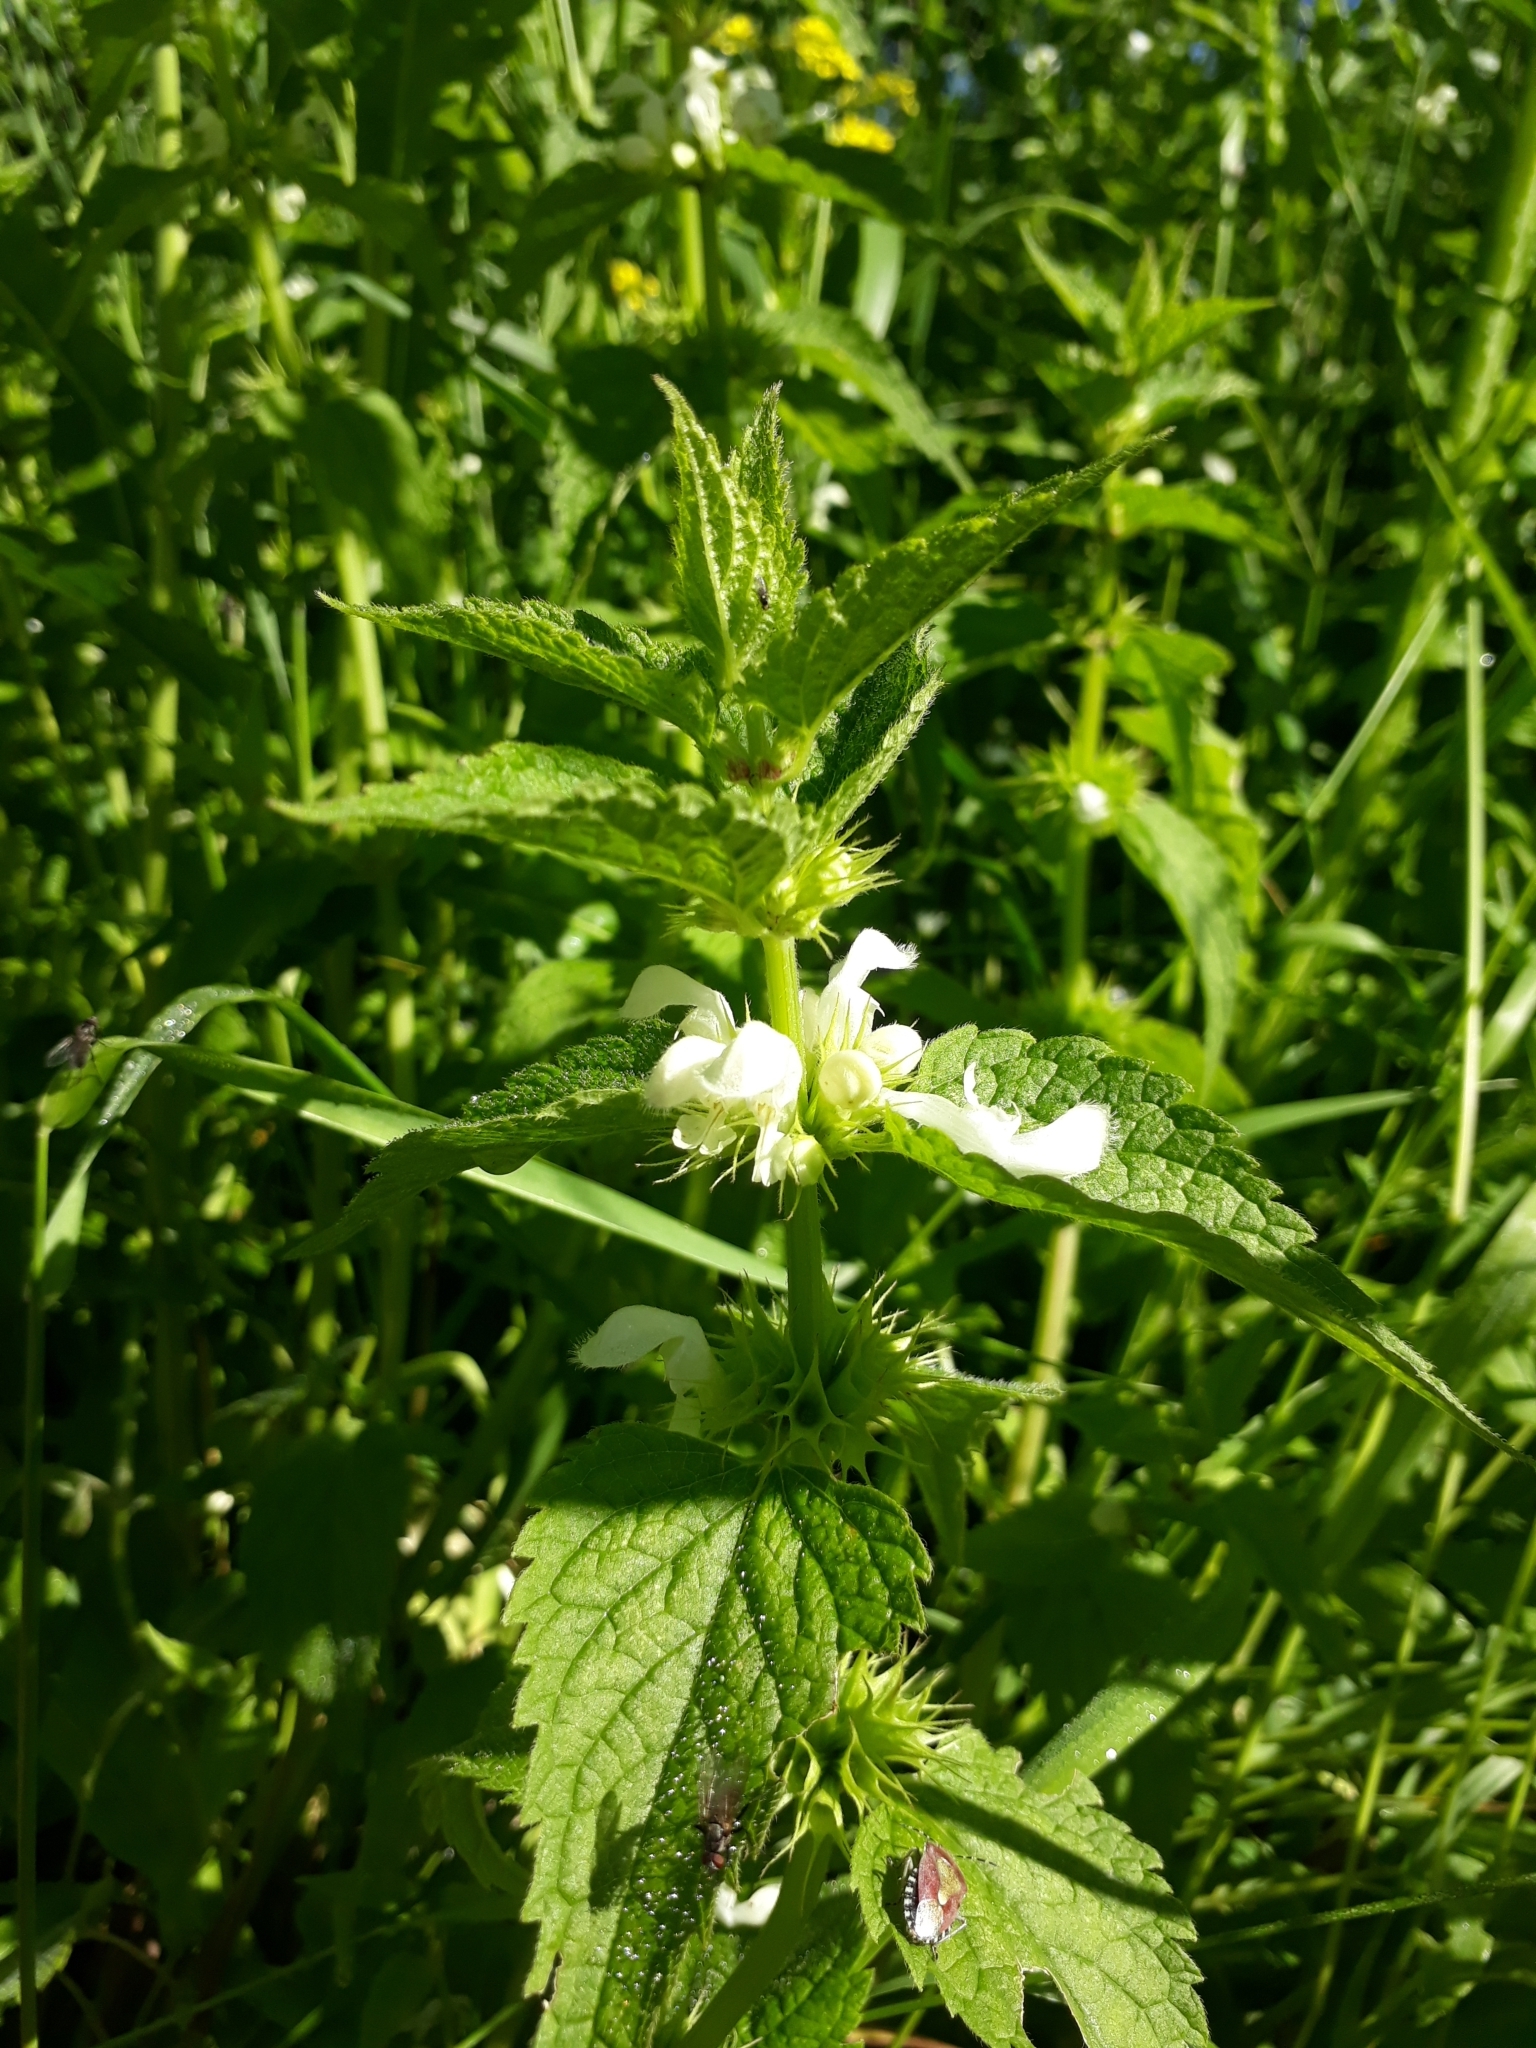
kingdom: Plantae
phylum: Tracheophyta
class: Magnoliopsida
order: Lamiales
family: Lamiaceae
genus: Lamium
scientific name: Lamium album
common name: White dead-nettle
